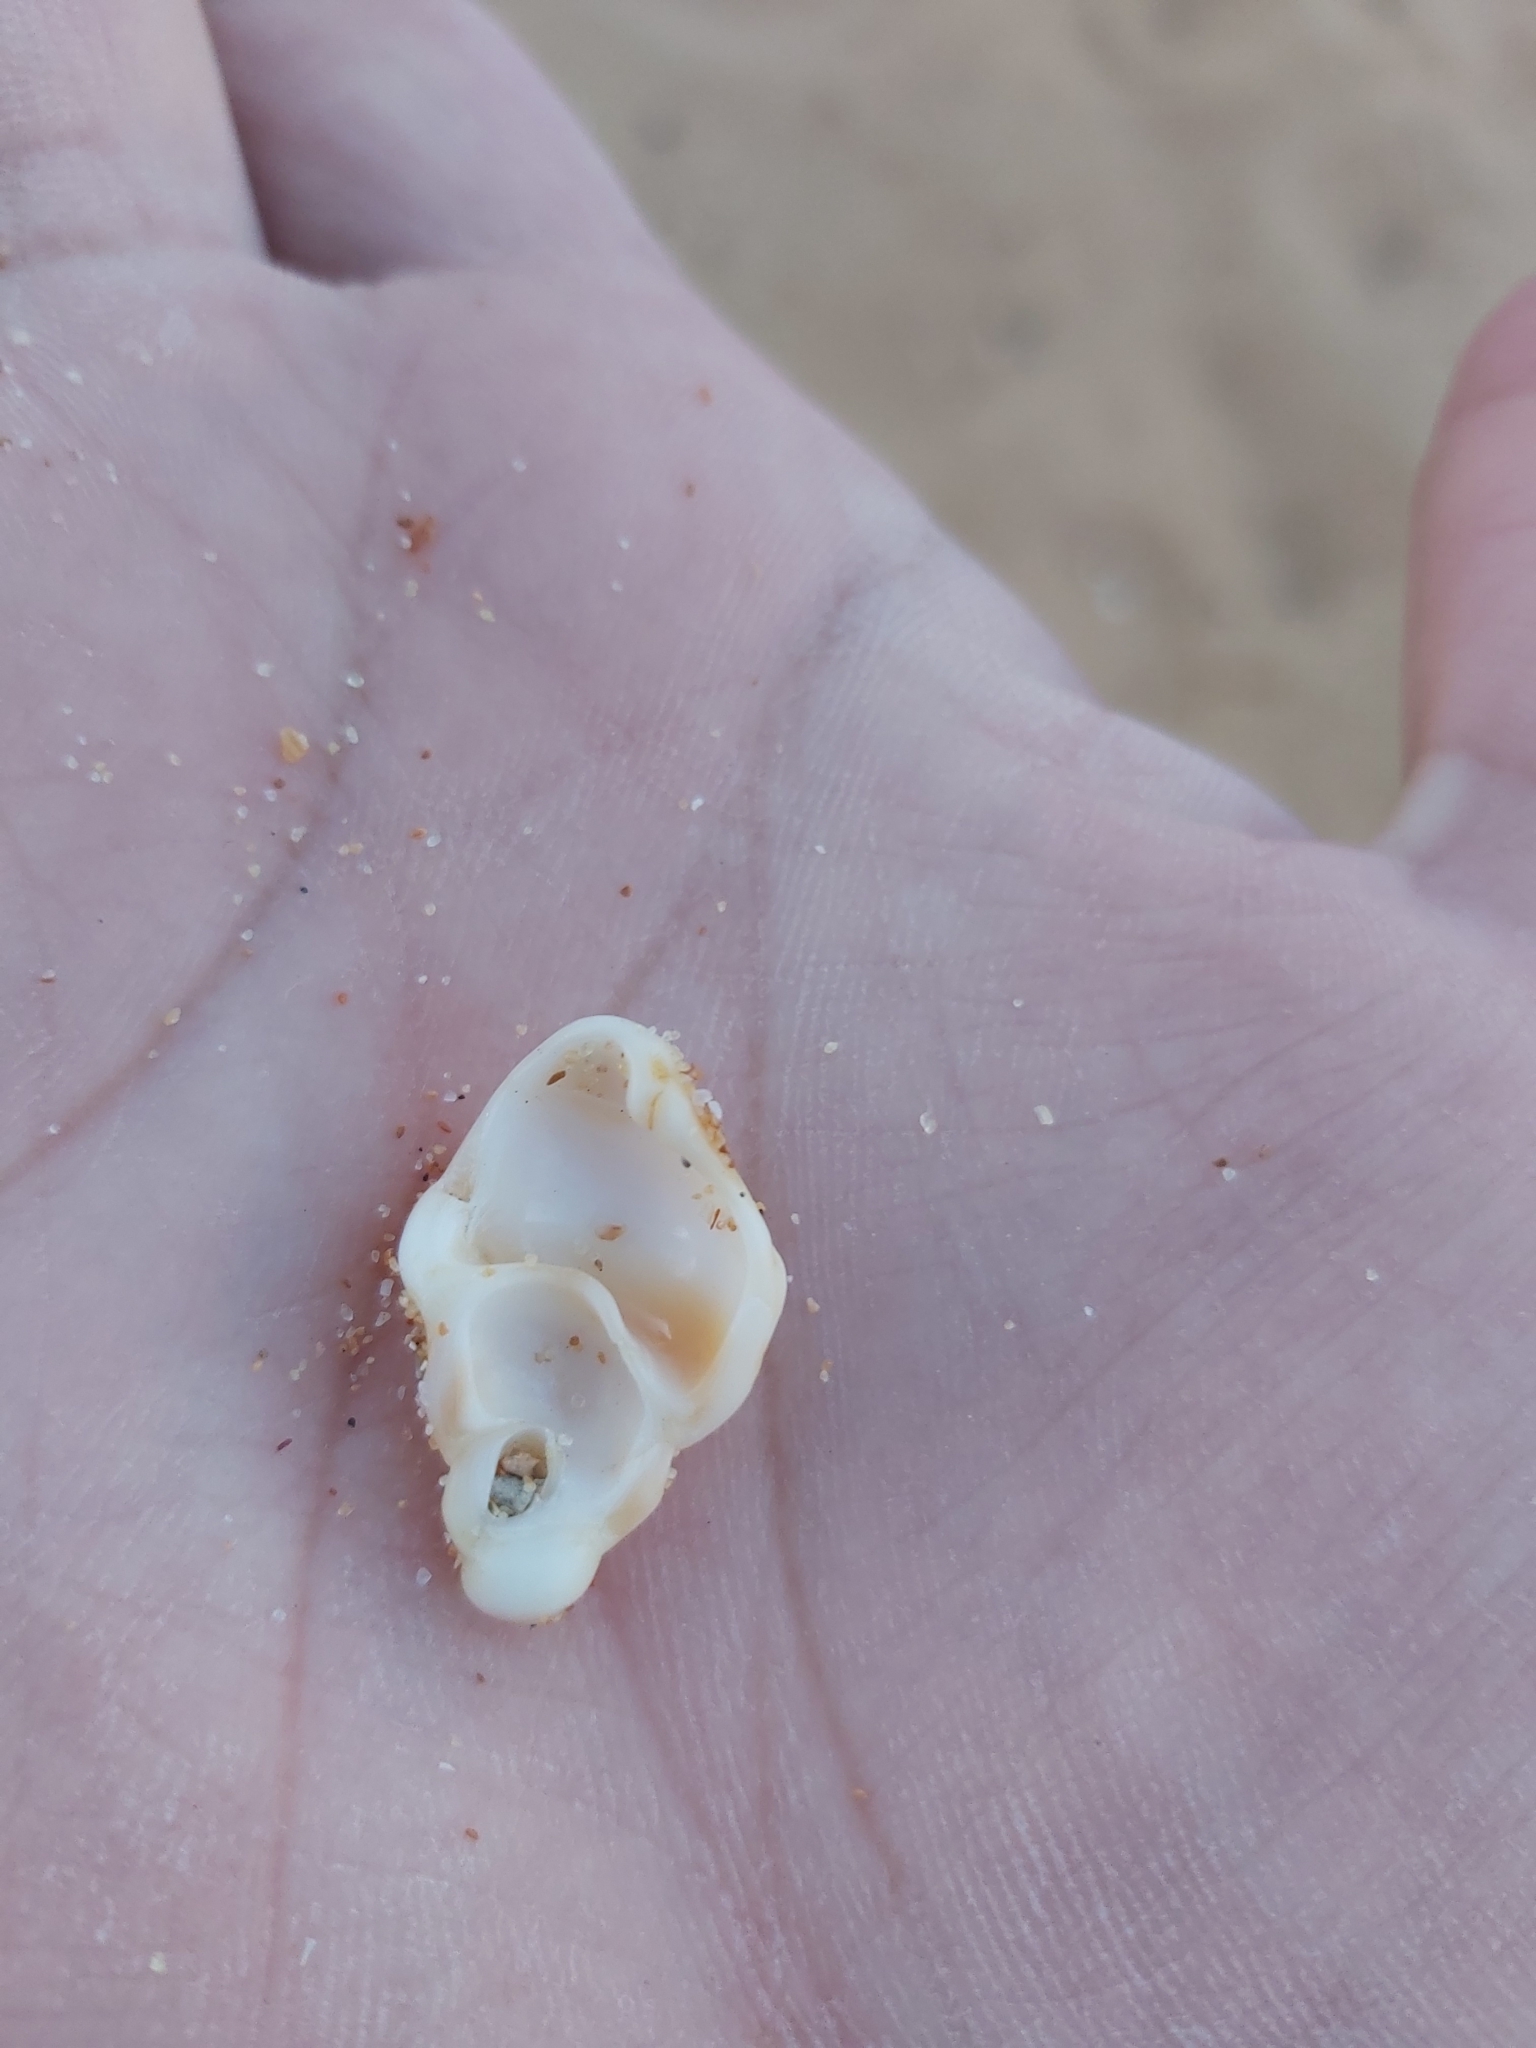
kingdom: Animalia
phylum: Mollusca
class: Gastropoda
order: Littorinimorpha
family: Struthiolariidae
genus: Tylospira
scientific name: Tylospira scutulata
